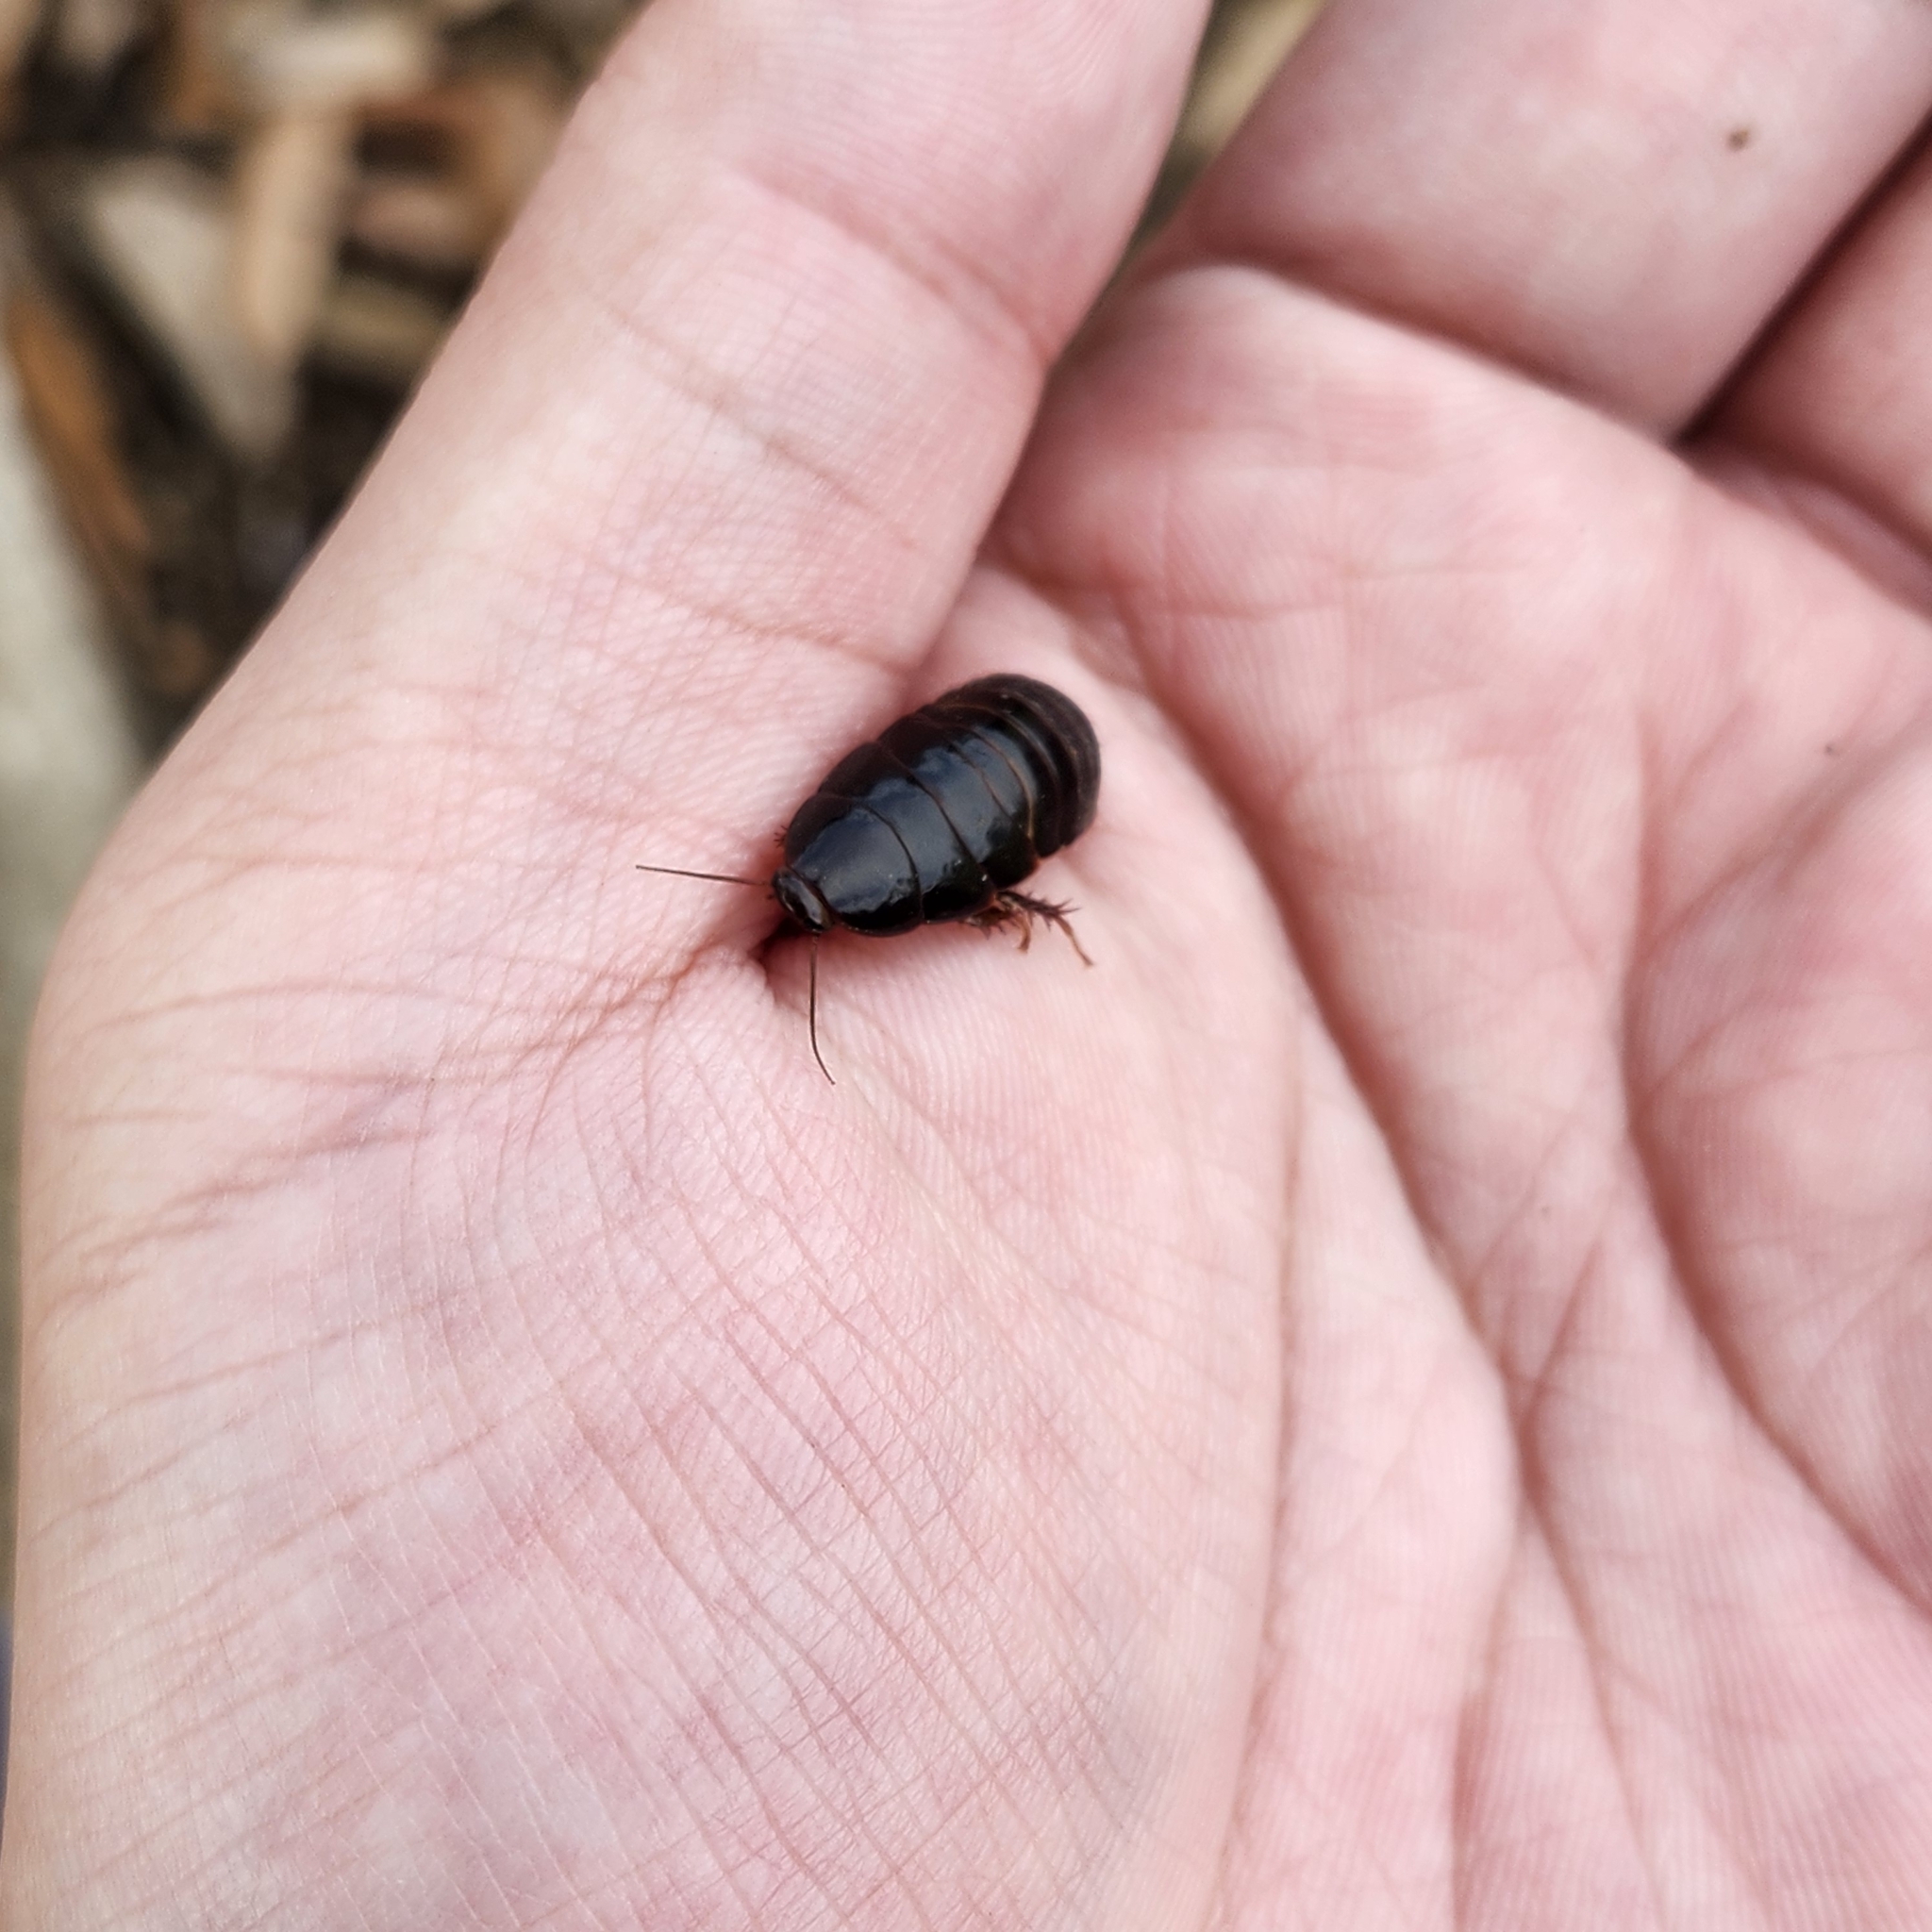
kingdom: Animalia
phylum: Arthropoda
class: Insecta
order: Blattodea
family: Blaberidae
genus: Pycnoscelus
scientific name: Pycnoscelus surinamensis
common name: Surinam cockroach
